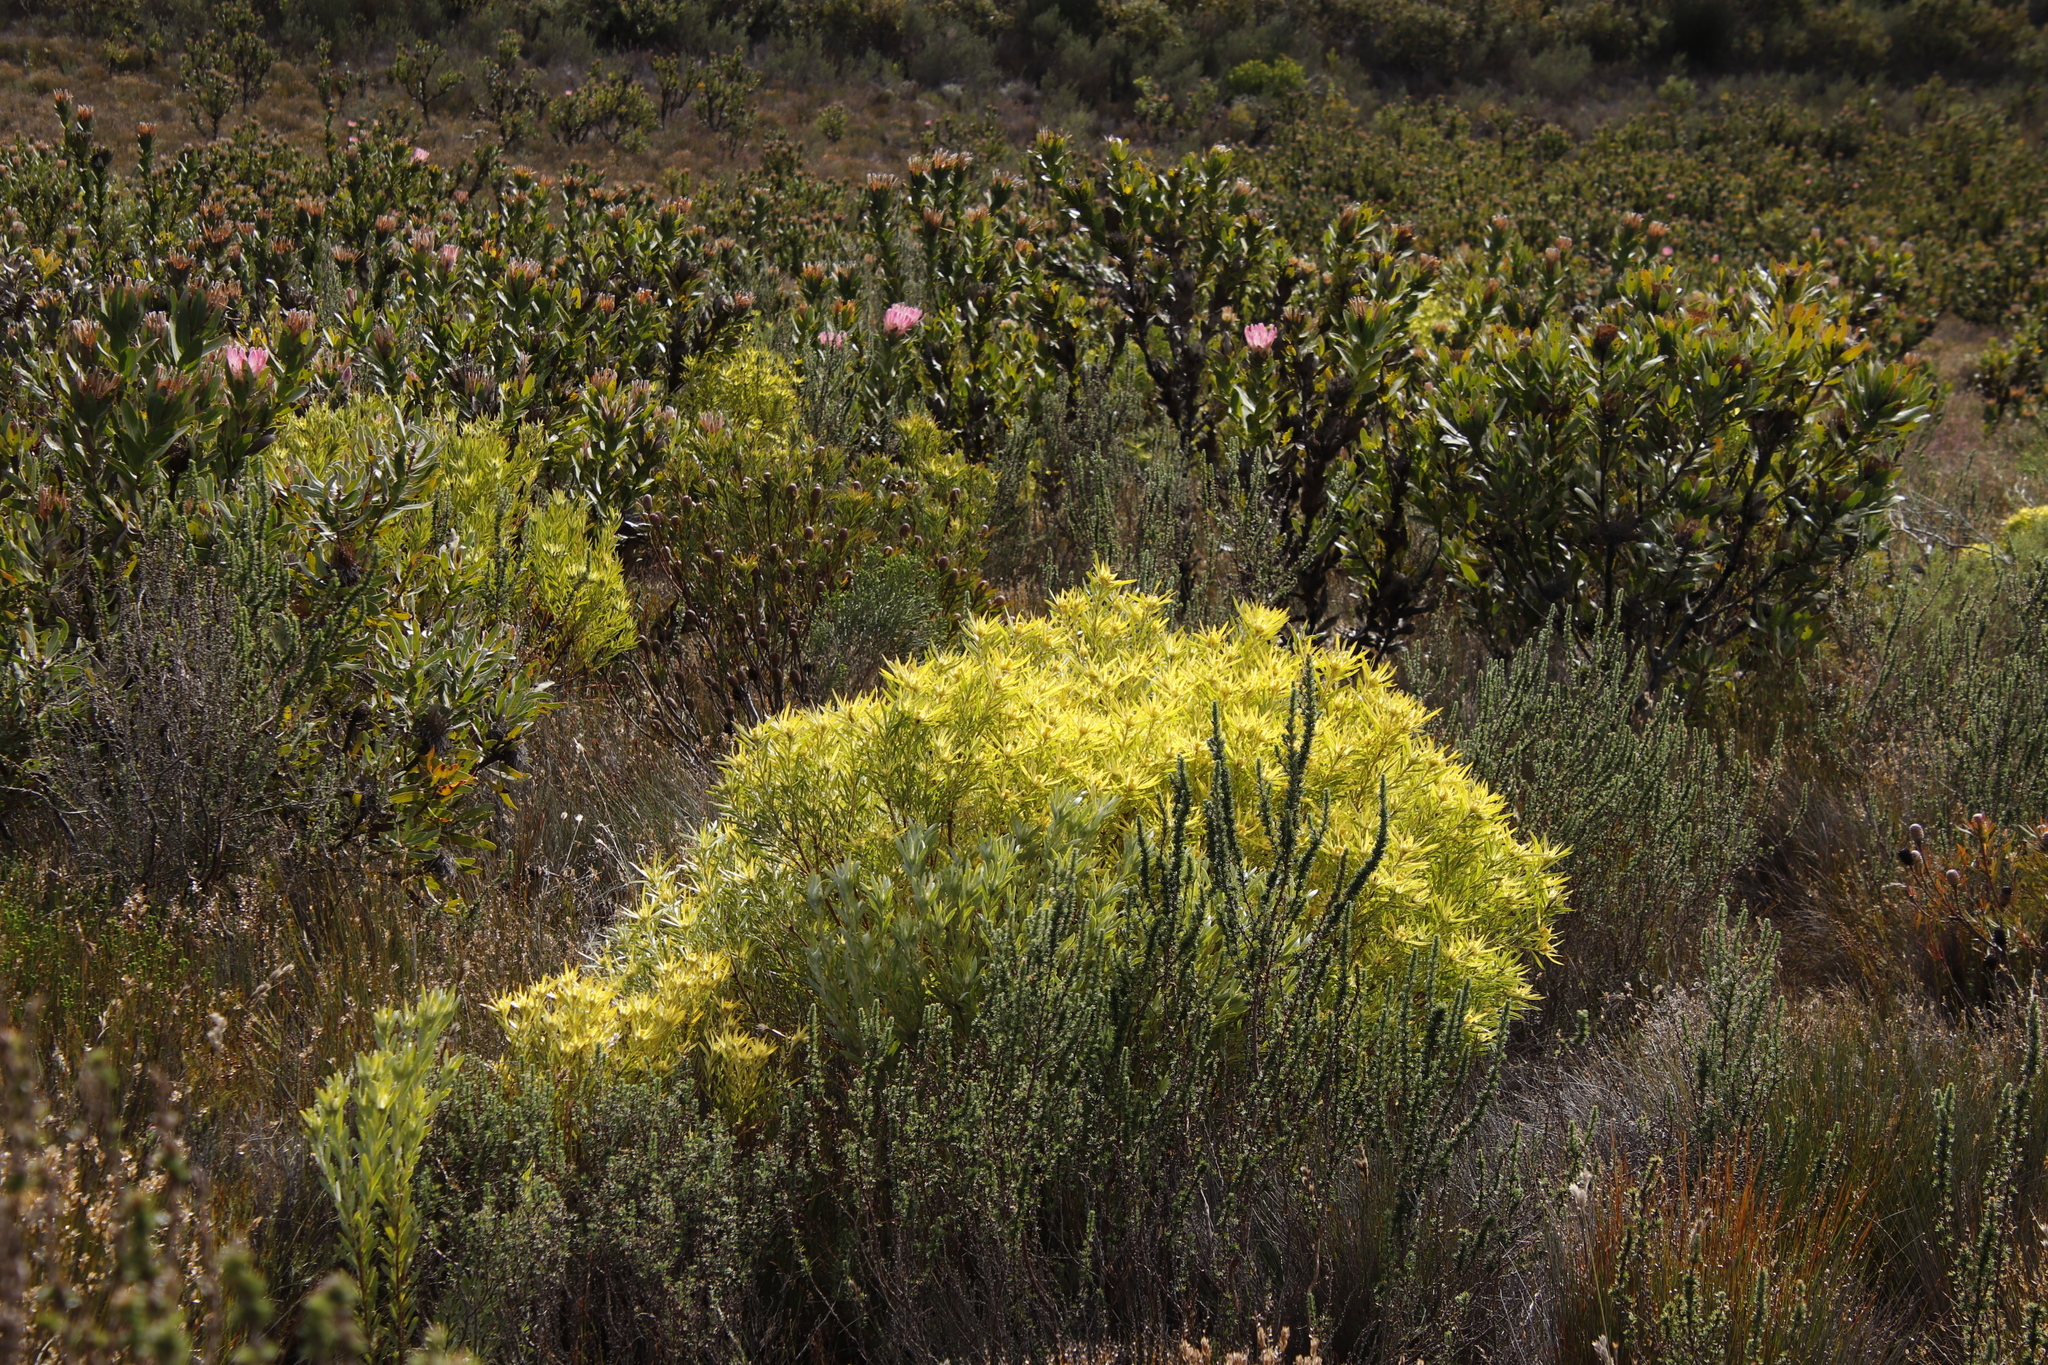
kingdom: Plantae
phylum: Tracheophyta
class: Magnoliopsida
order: Proteales
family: Proteaceae
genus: Leucadendron
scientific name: Leucadendron coniferum
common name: Dune conebush
